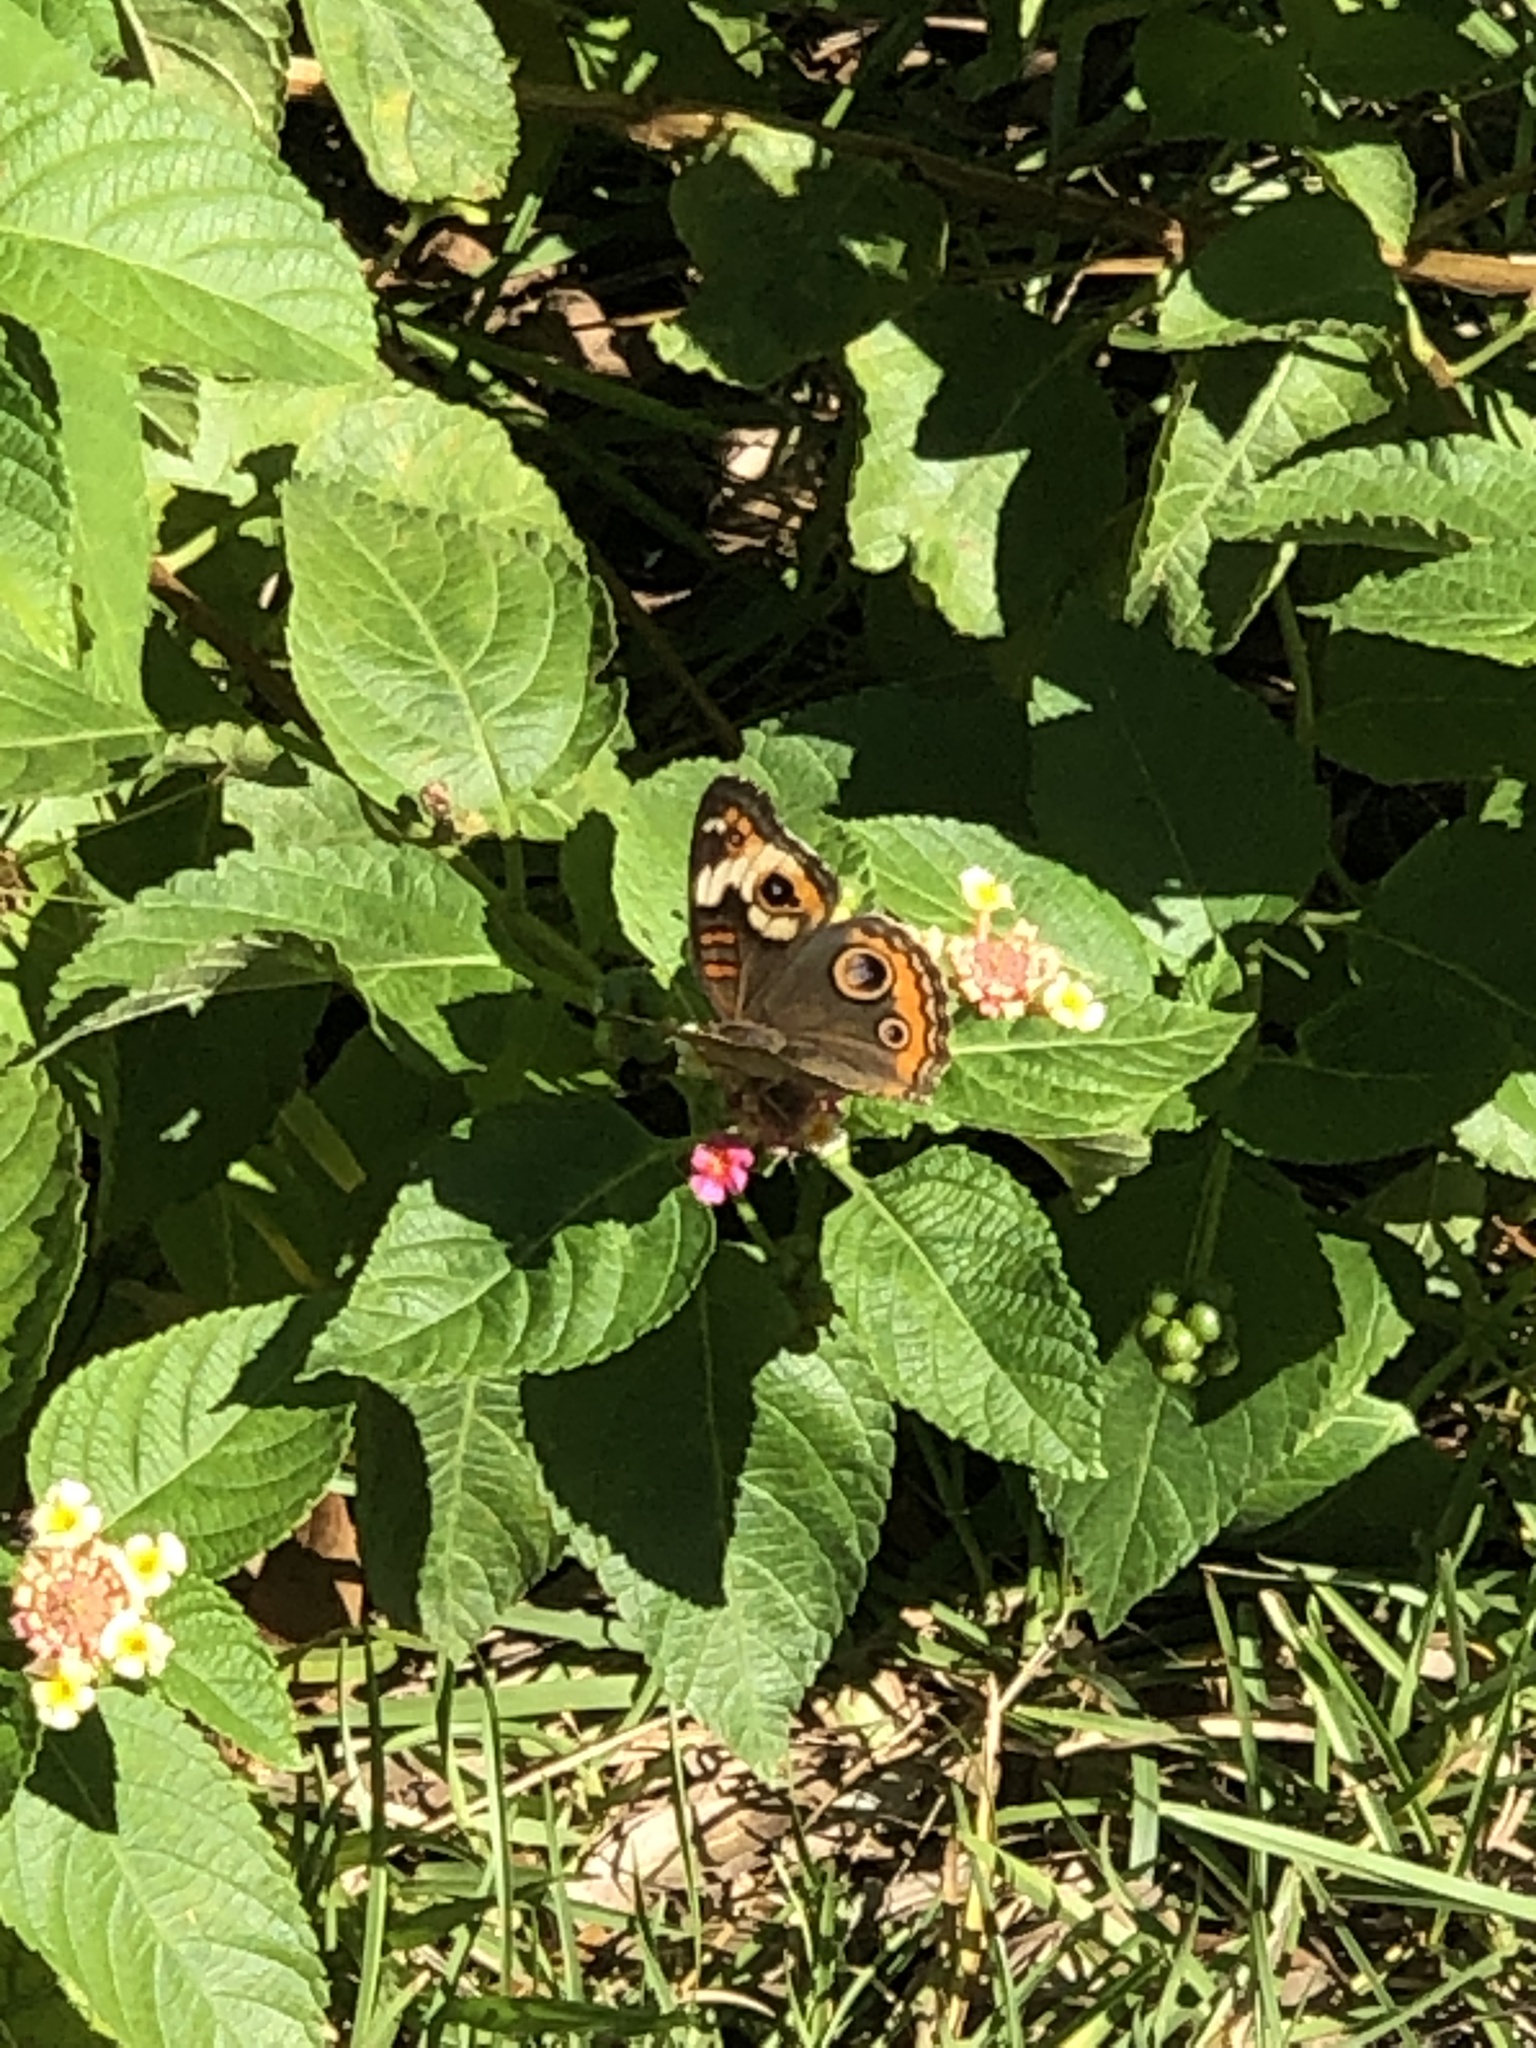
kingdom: Animalia
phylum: Arthropoda
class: Insecta
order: Lepidoptera
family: Nymphalidae
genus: Junonia
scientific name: Junonia coenia
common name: Common buckeye
